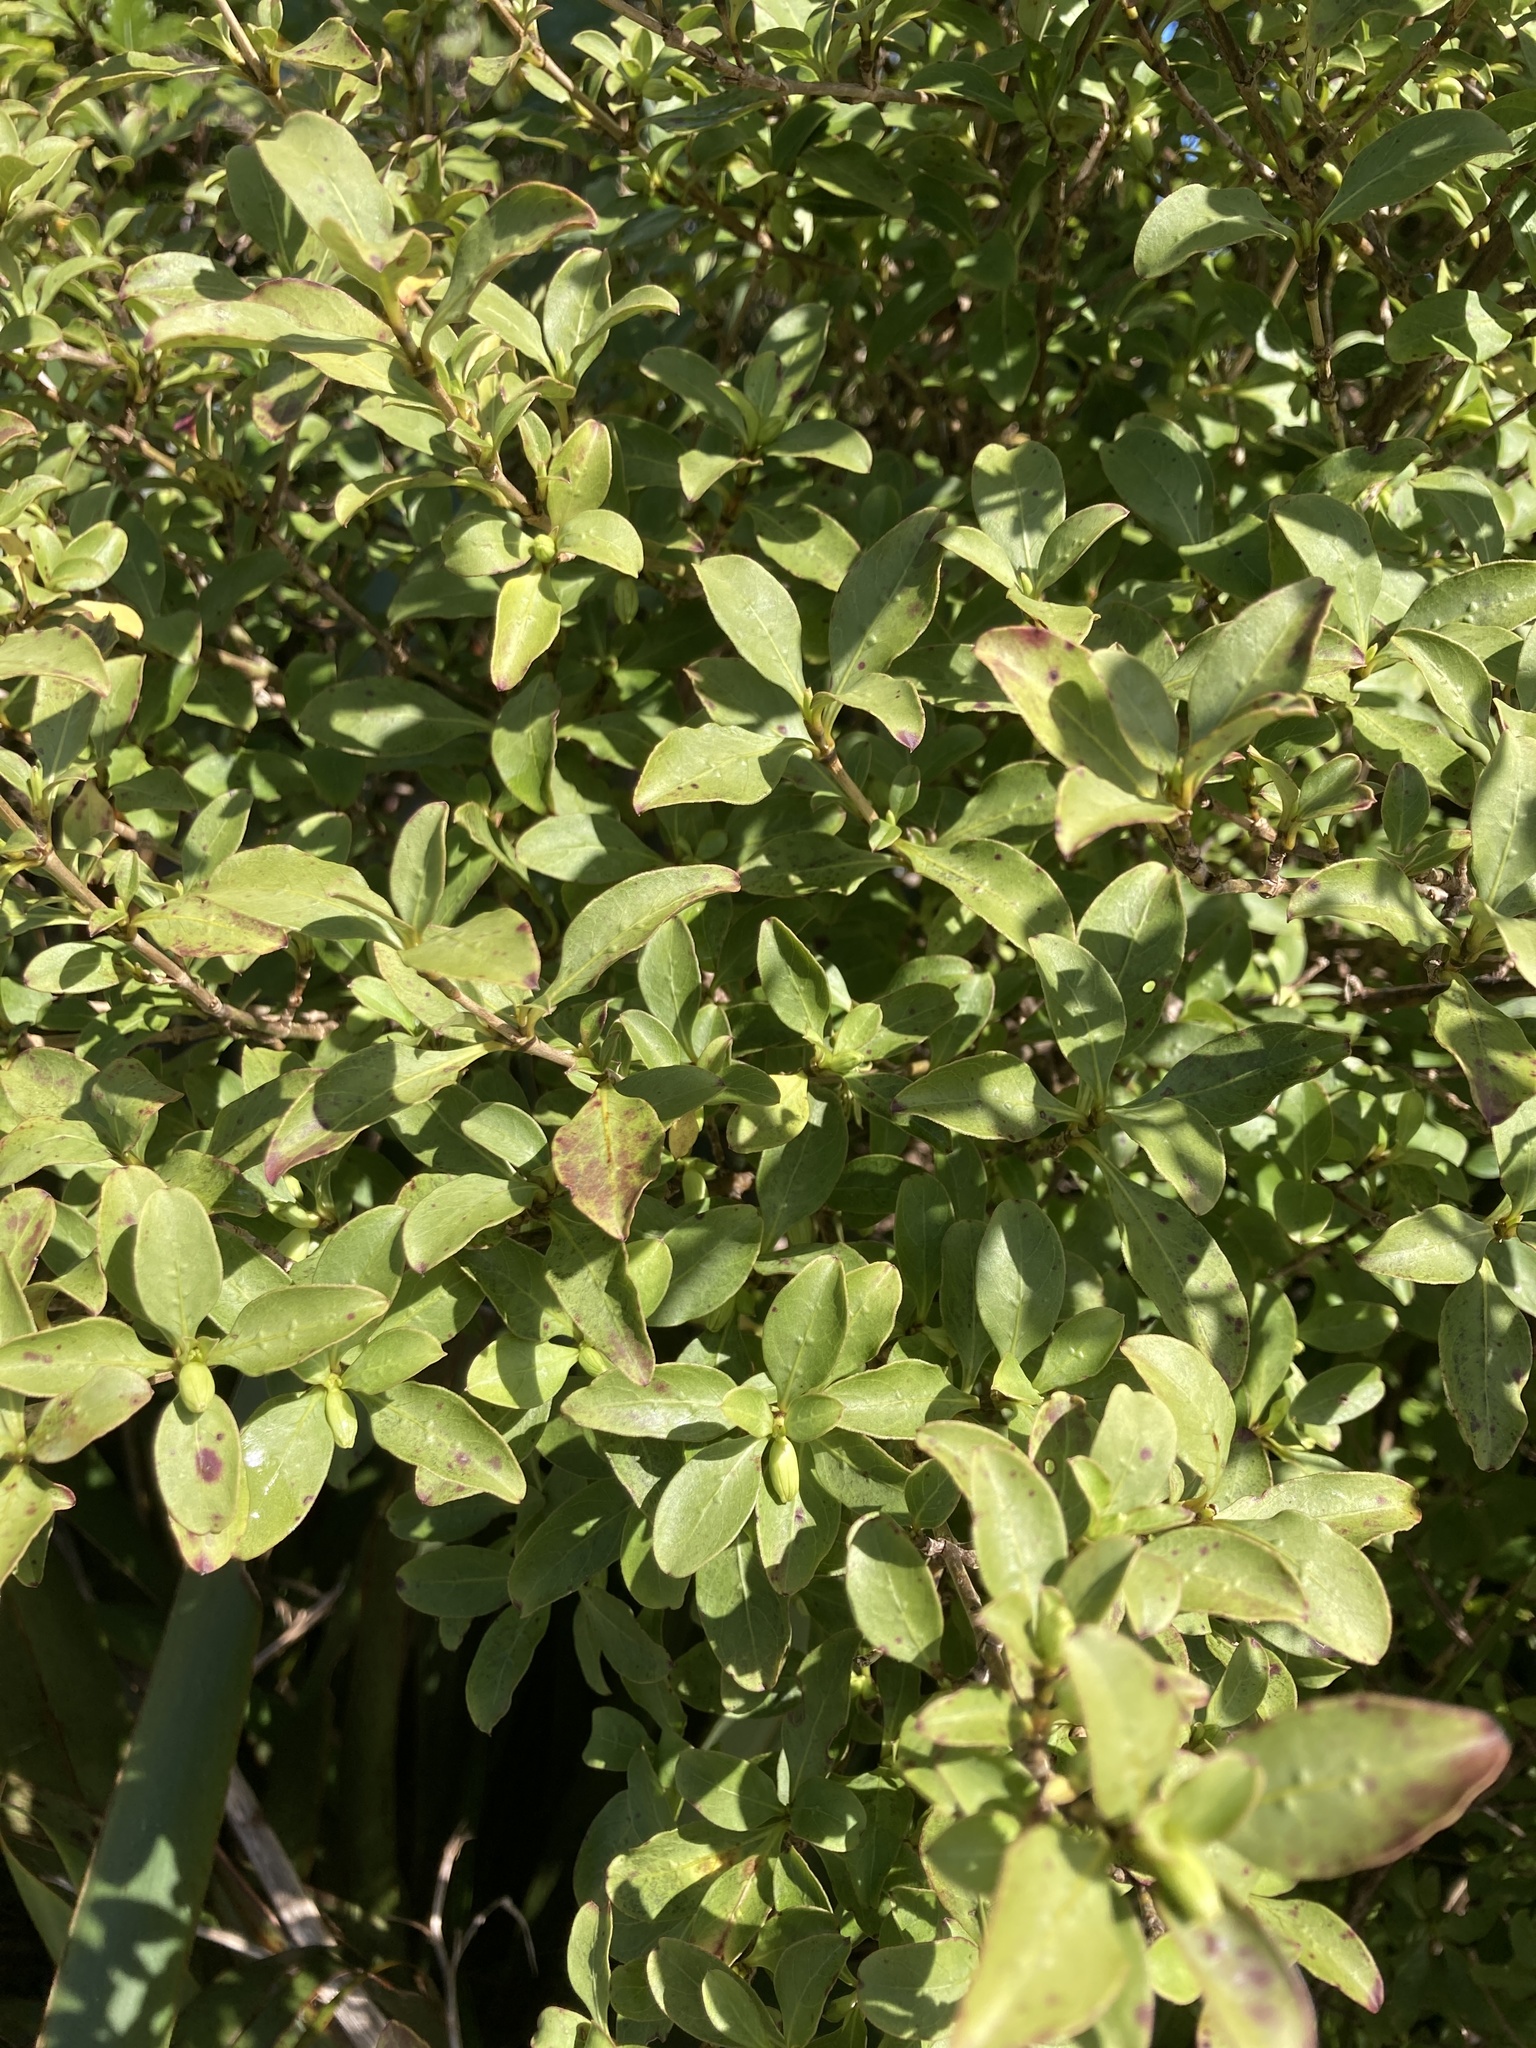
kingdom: Plantae
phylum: Tracheophyta
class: Magnoliopsida
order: Gentianales
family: Rubiaceae
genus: Coprosma
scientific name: Coprosma foetidissima
